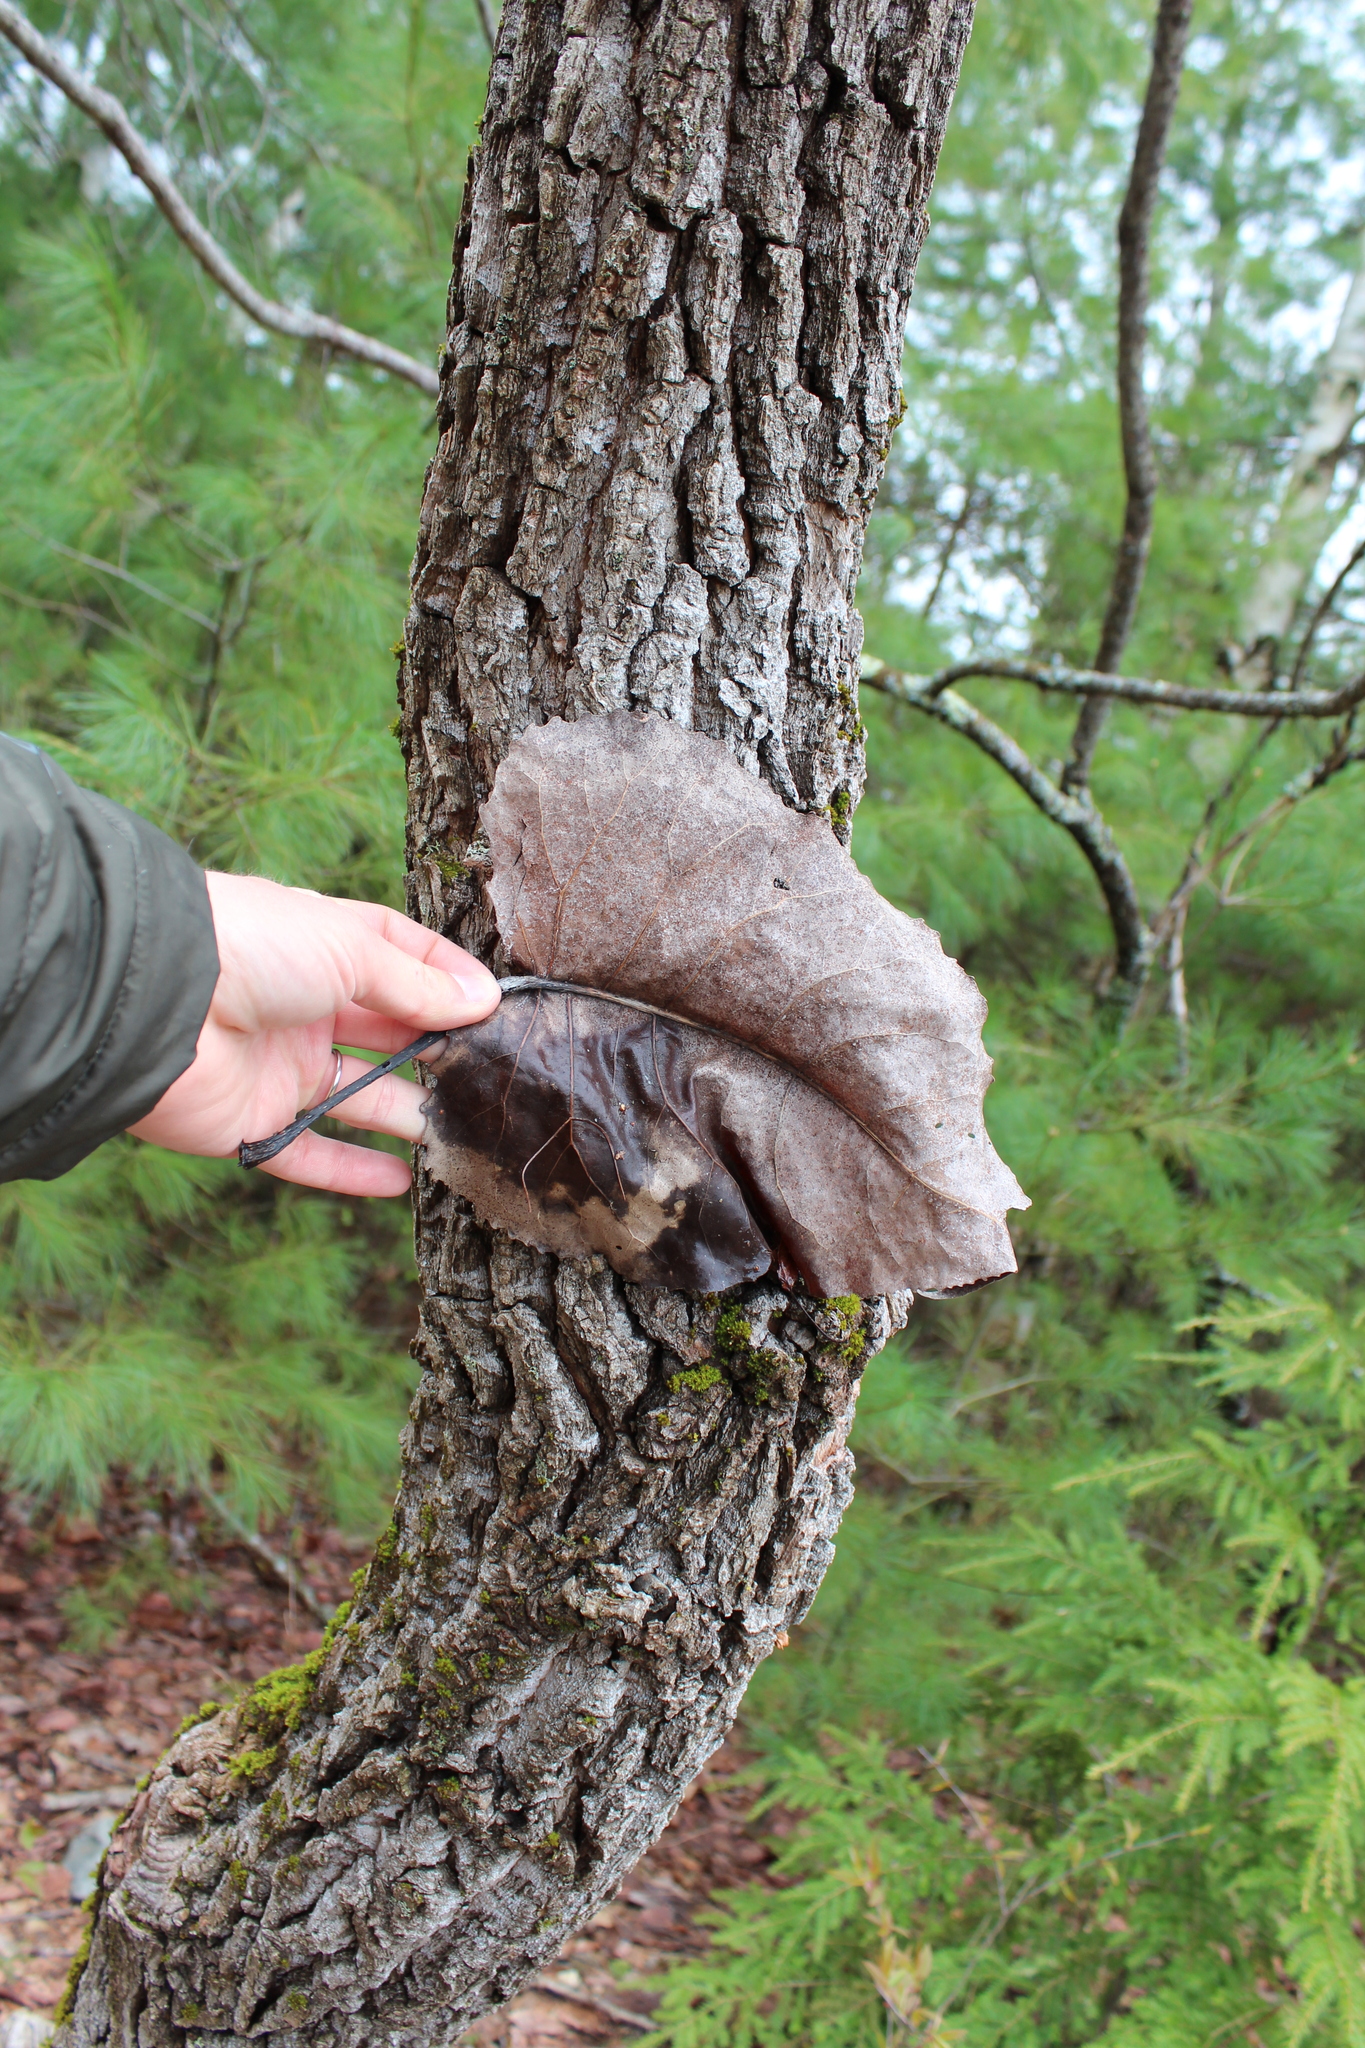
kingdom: Plantae
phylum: Tracheophyta
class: Magnoliopsida
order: Malpighiales
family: Salicaceae
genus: Populus
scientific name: Populus deltoides
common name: Eastern cottonwood
